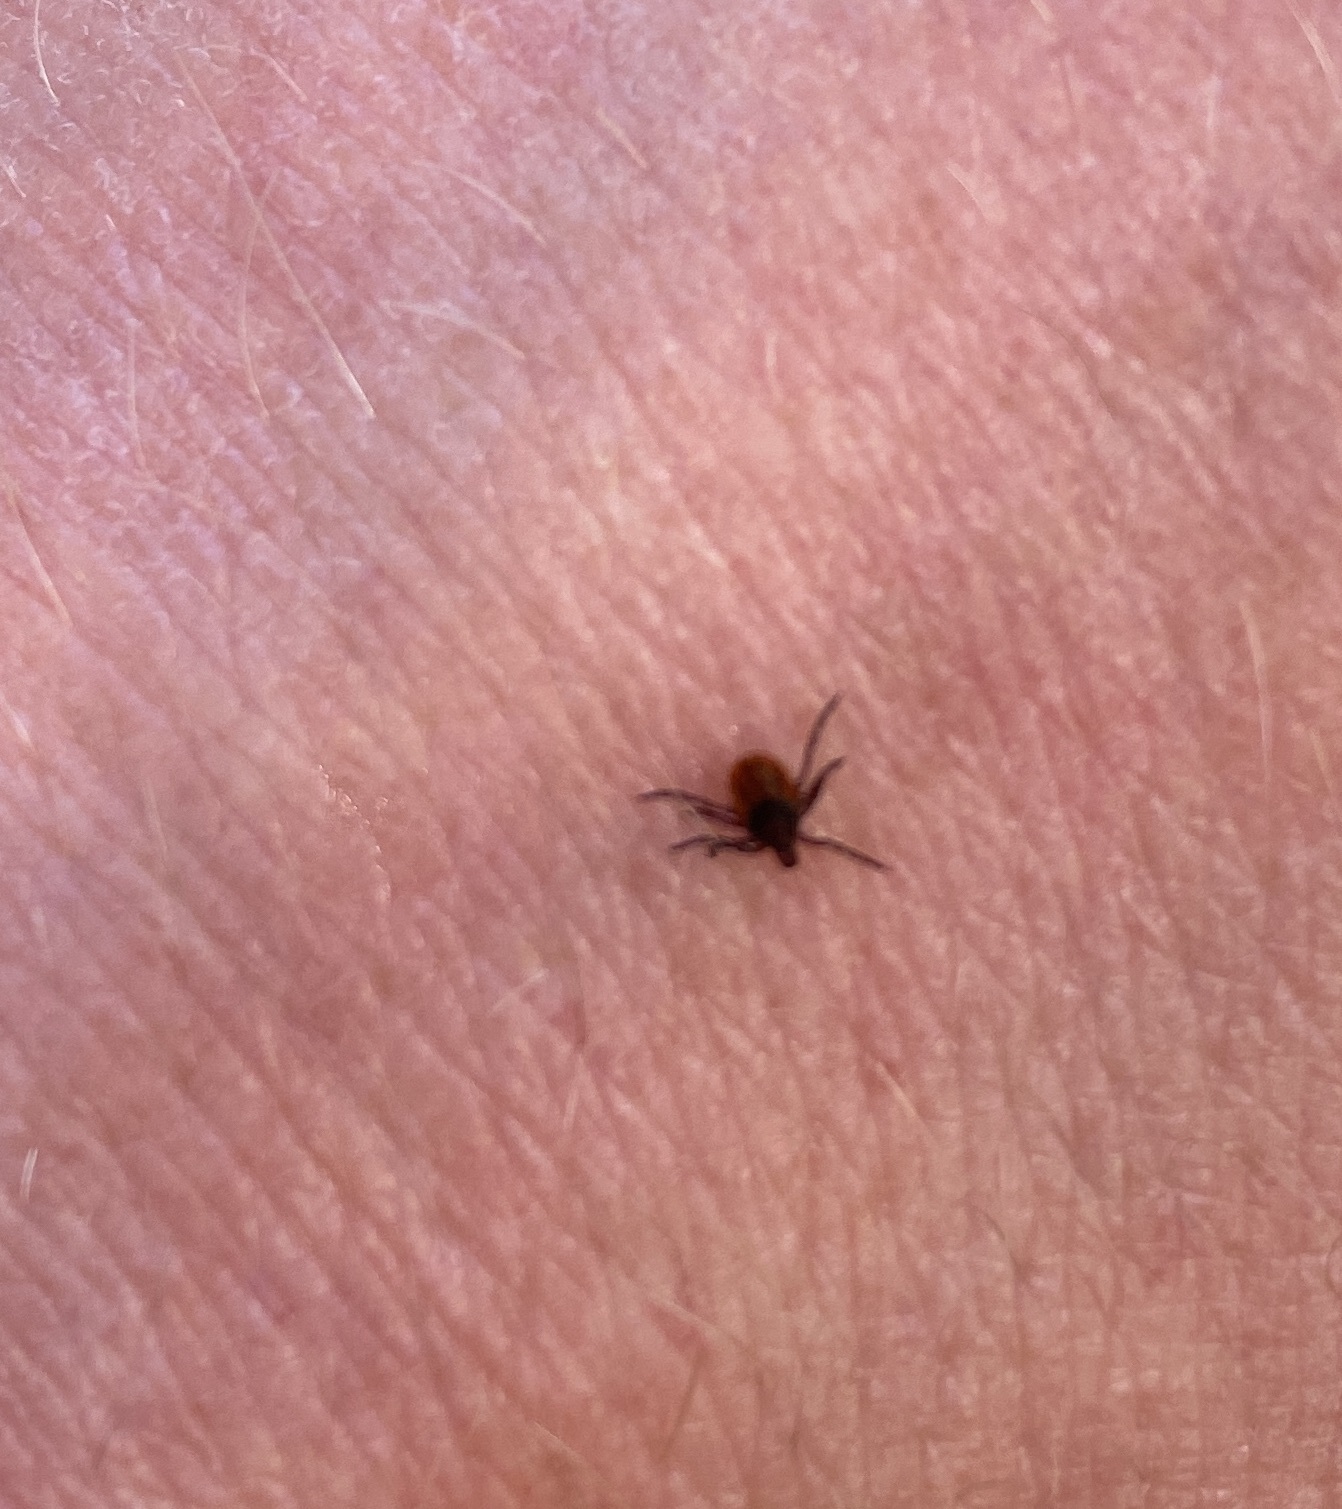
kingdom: Animalia
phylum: Arthropoda
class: Arachnida
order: Ixodida
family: Ixodidae
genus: Ixodes
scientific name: Ixodes scapularis
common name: Black legged tick
